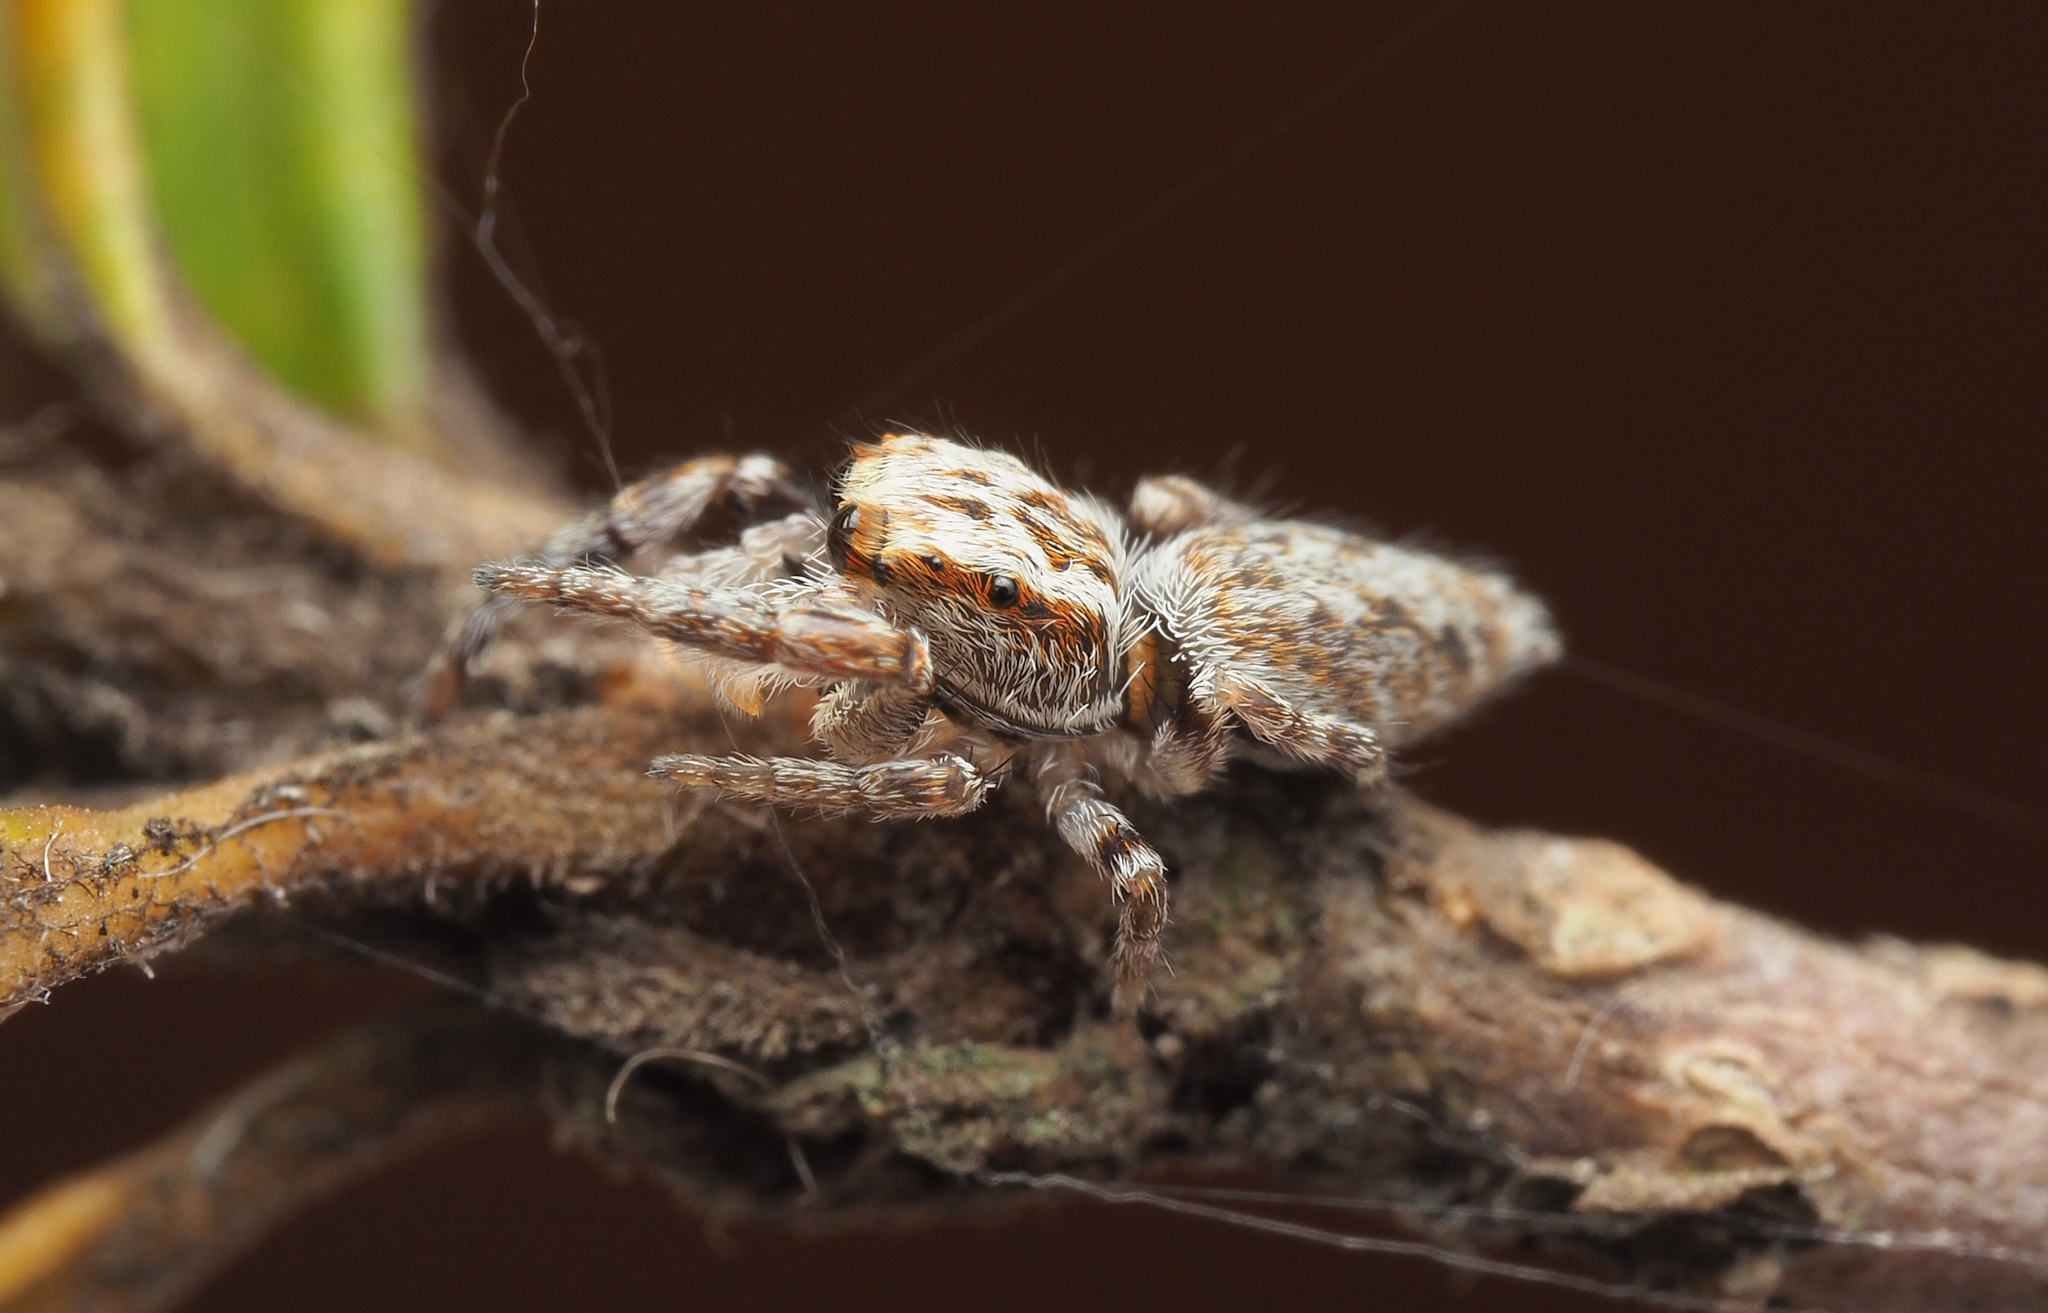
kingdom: Animalia
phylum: Arthropoda
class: Arachnida
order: Araneae
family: Salticidae
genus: Ananeon
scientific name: Ananeon
